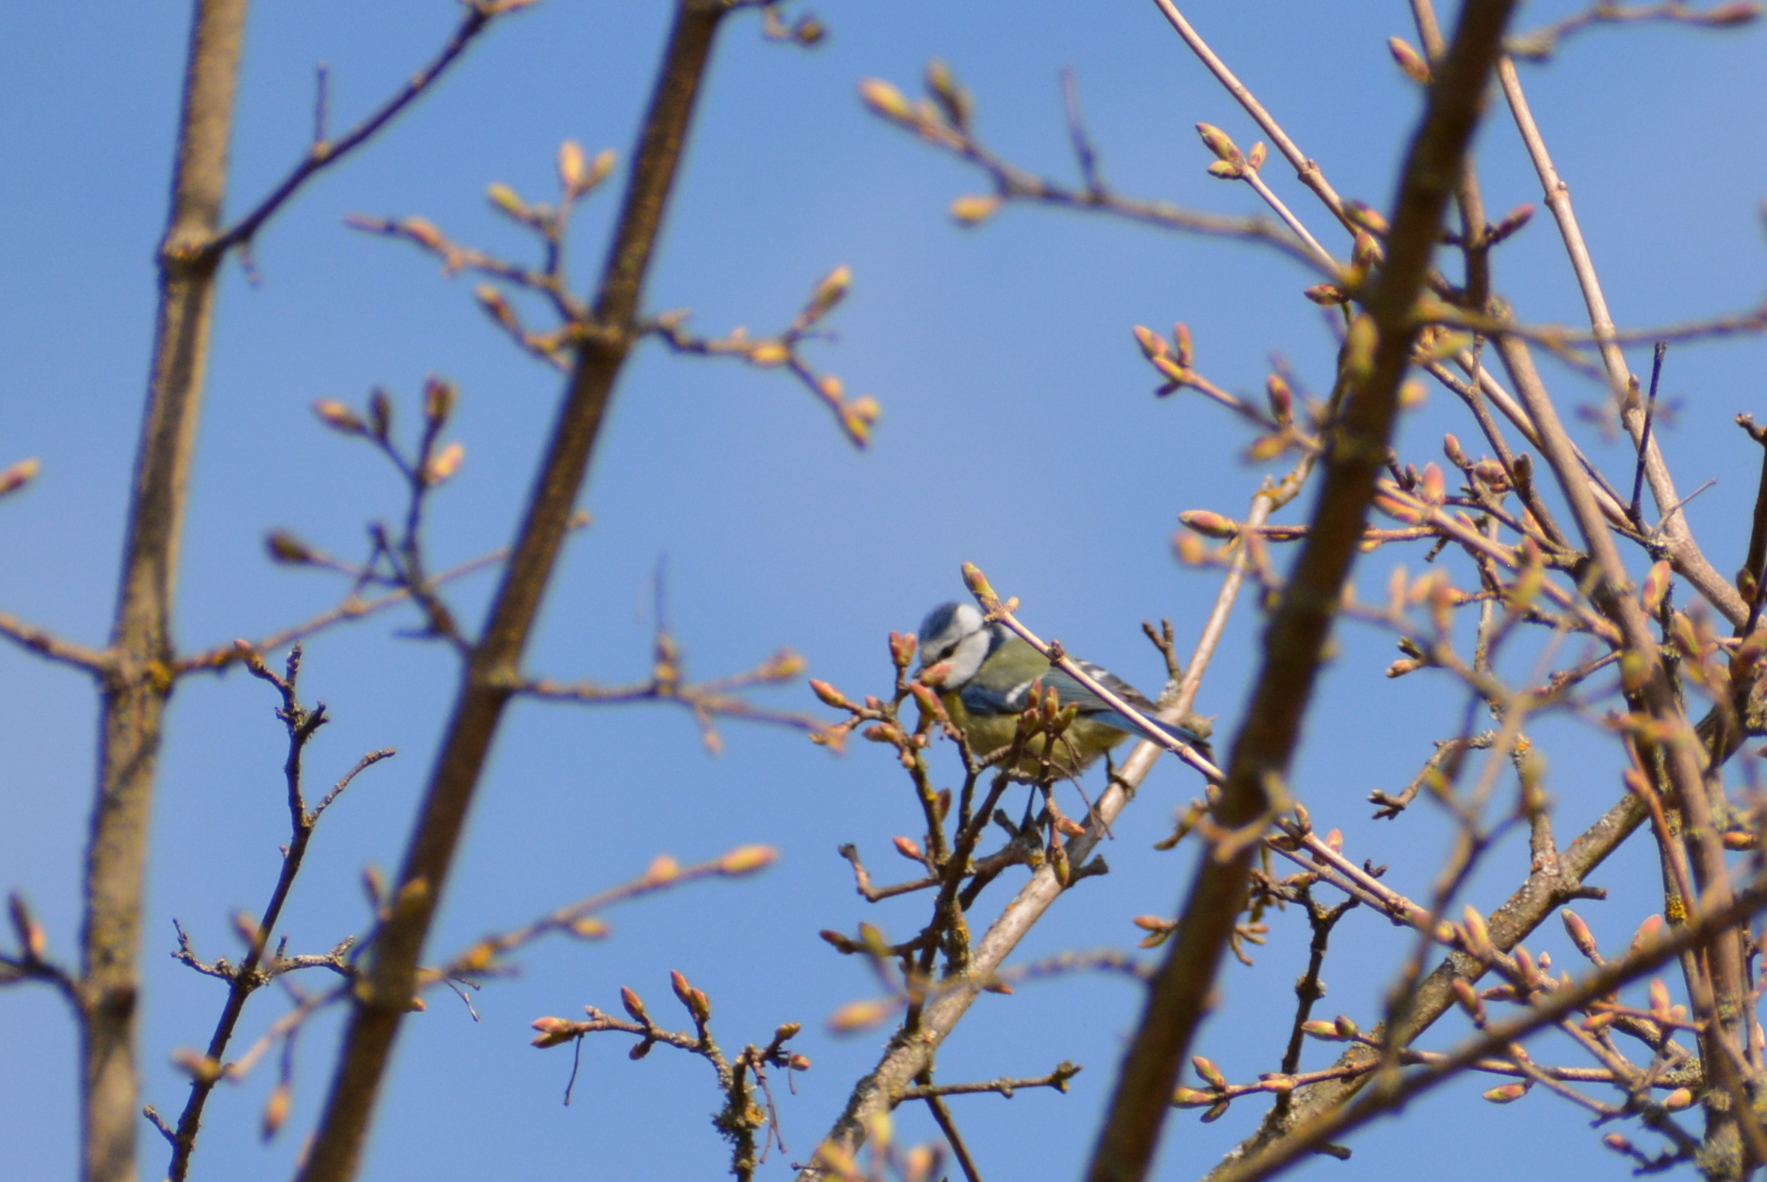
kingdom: Animalia
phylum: Chordata
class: Aves
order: Passeriformes
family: Paridae
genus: Cyanistes
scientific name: Cyanistes caeruleus
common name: Eurasian blue tit
